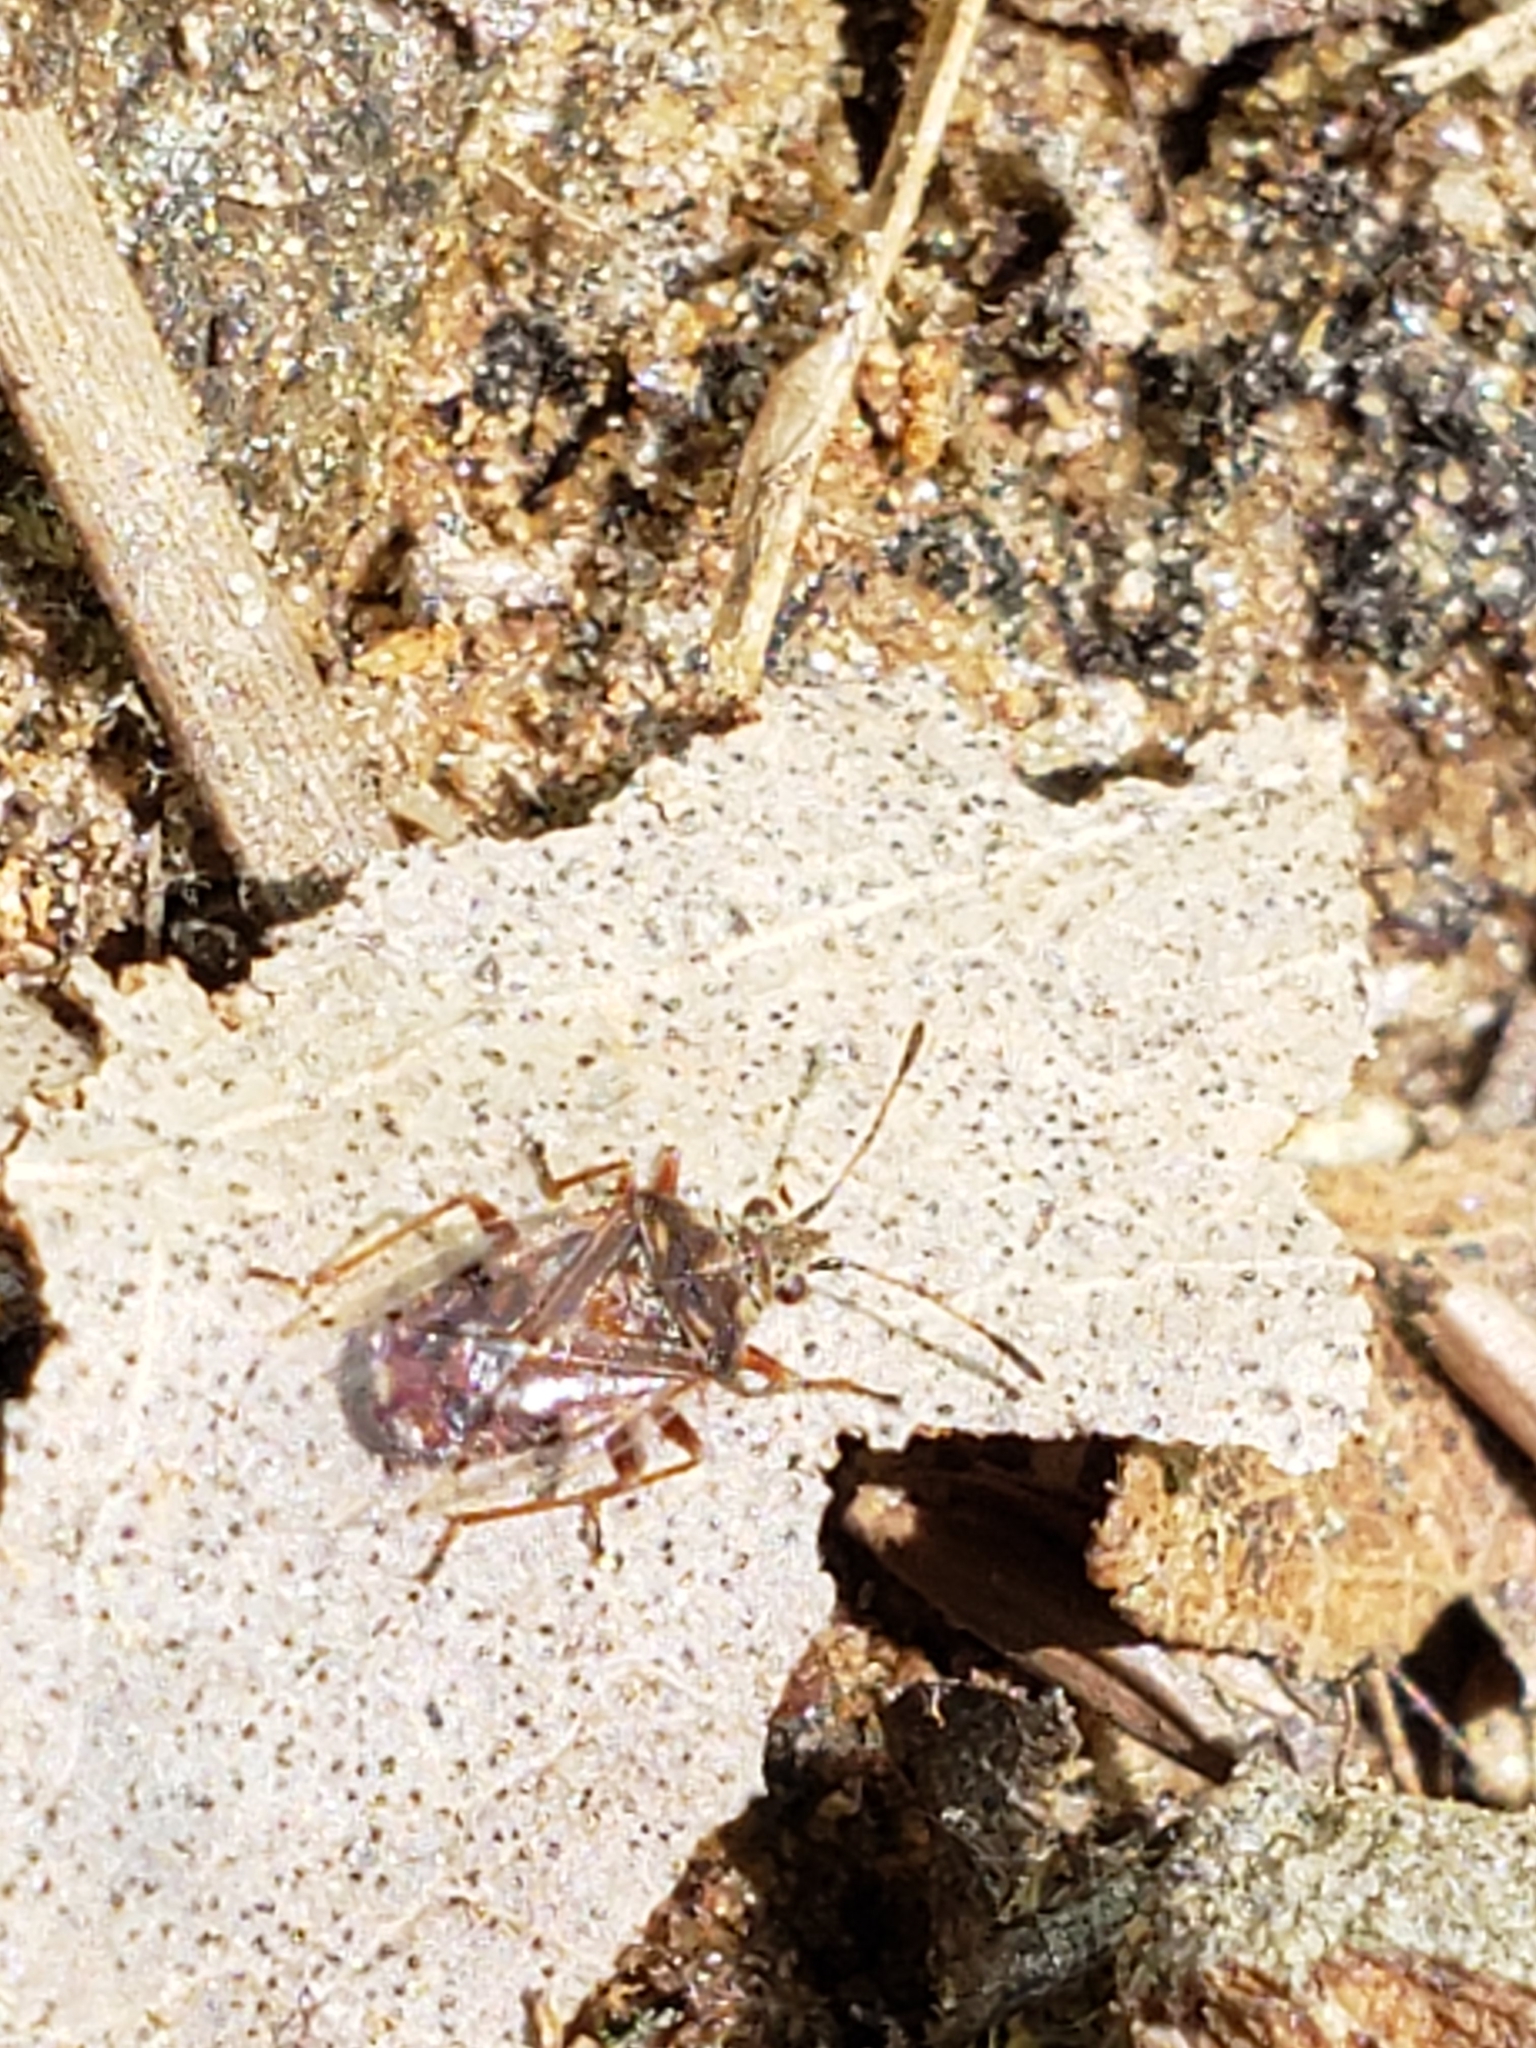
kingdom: Animalia
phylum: Arthropoda
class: Insecta
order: Hemiptera
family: Lygaeidae
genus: Kleidocerys
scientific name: Kleidocerys resedae
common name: Birch catkin bug
